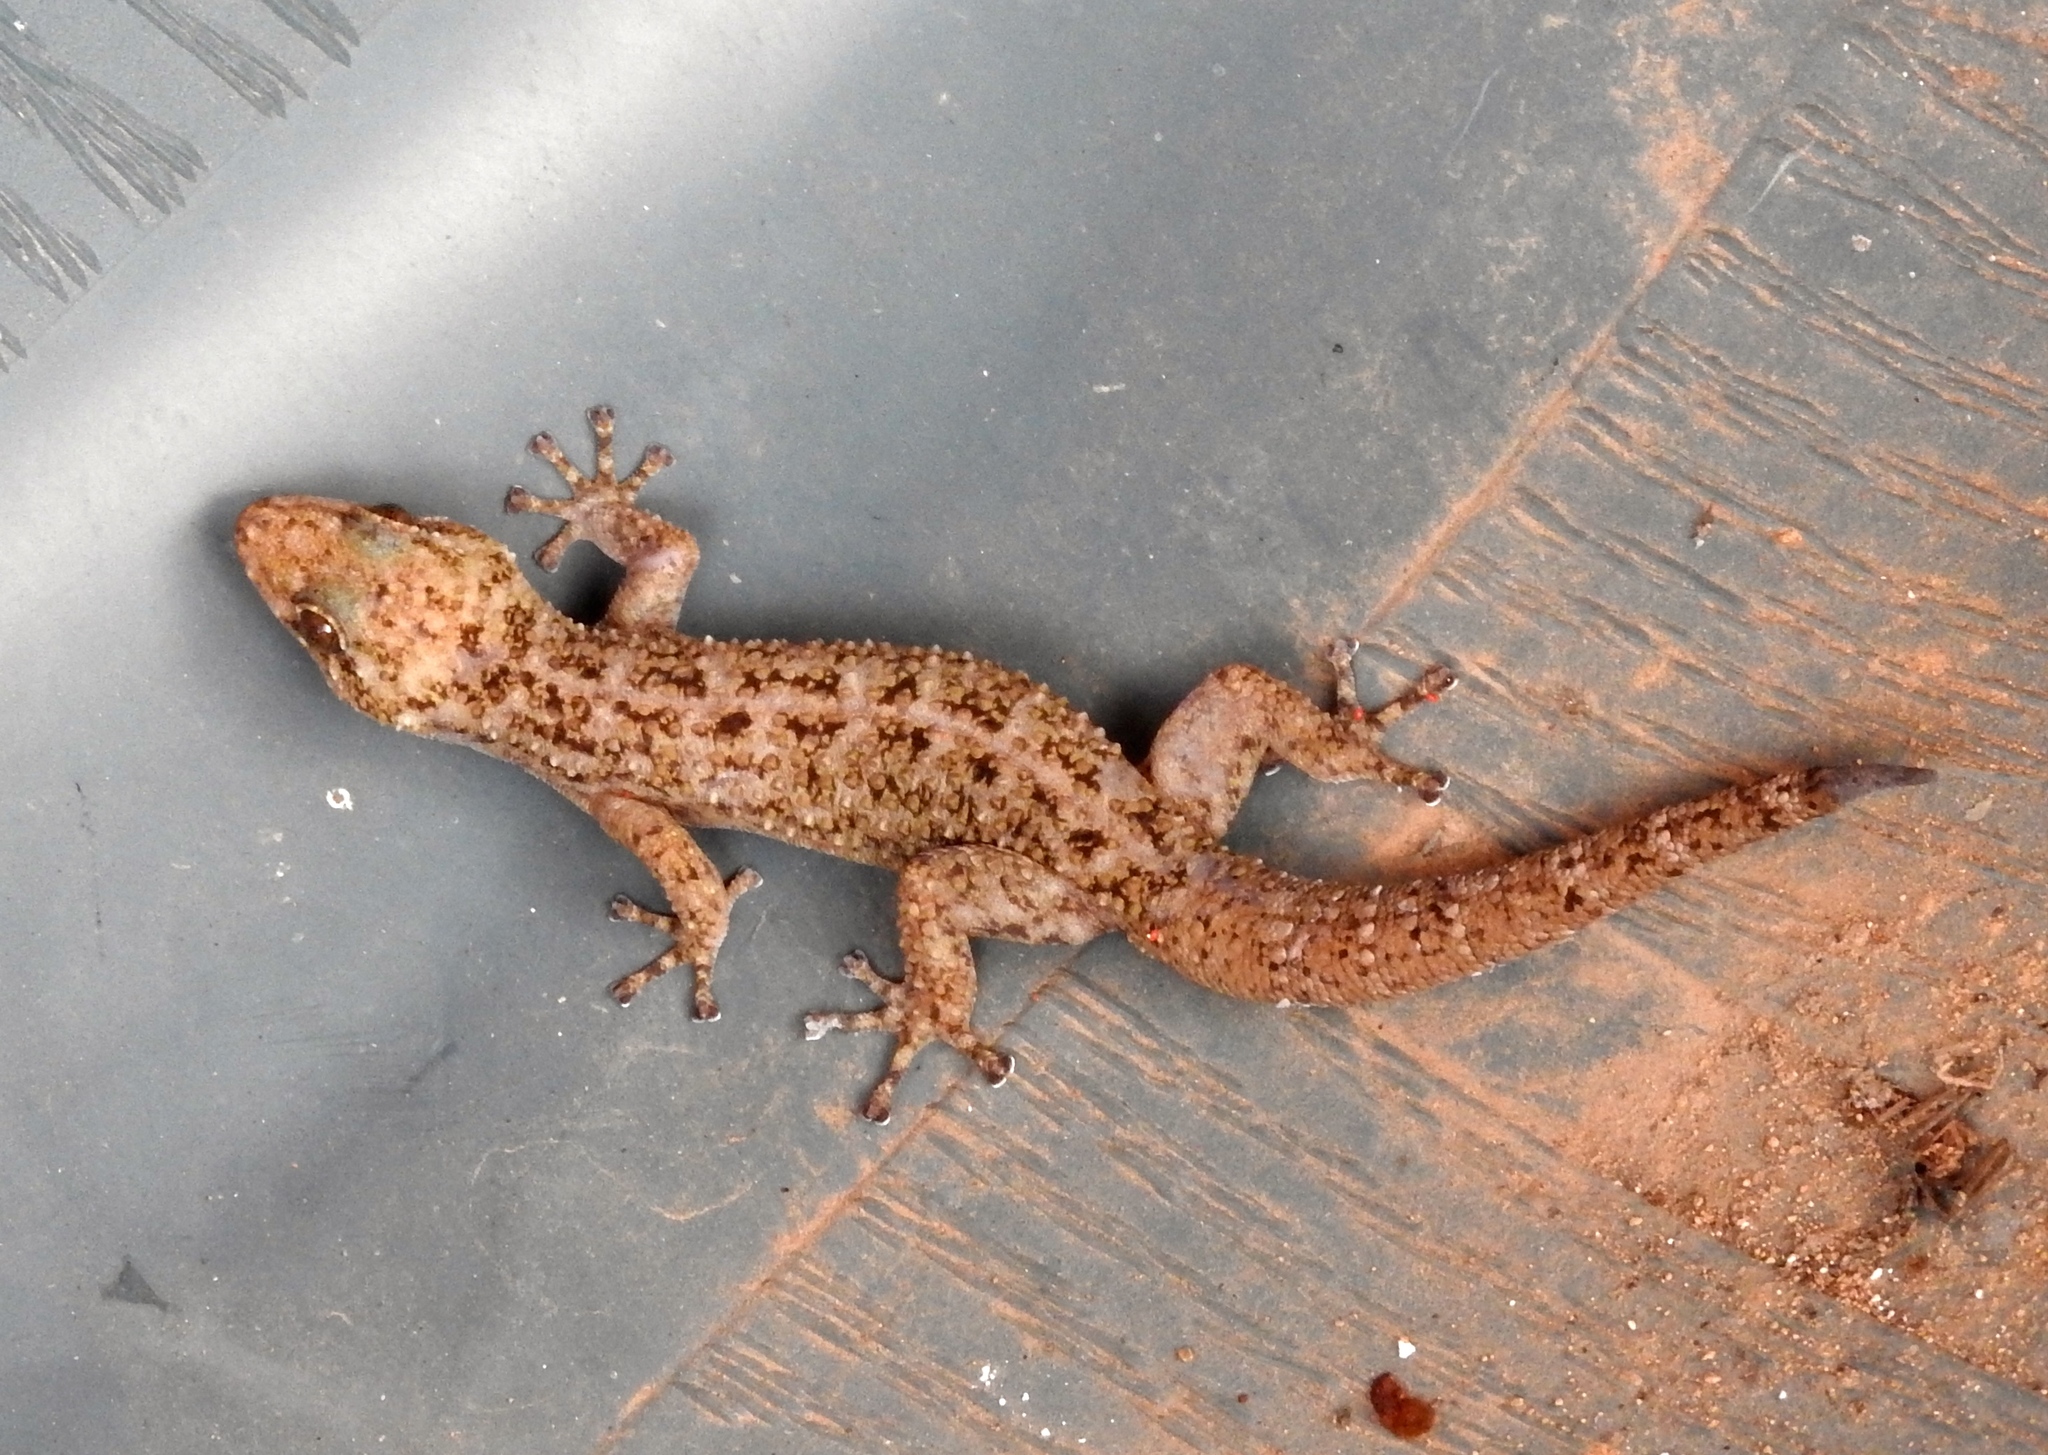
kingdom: Animalia
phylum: Chordata
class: Squamata
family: Phyllodactylidae
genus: Phyllodactylus
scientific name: Phyllodactylus lanei
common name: Lane's leaf-toed gecko
